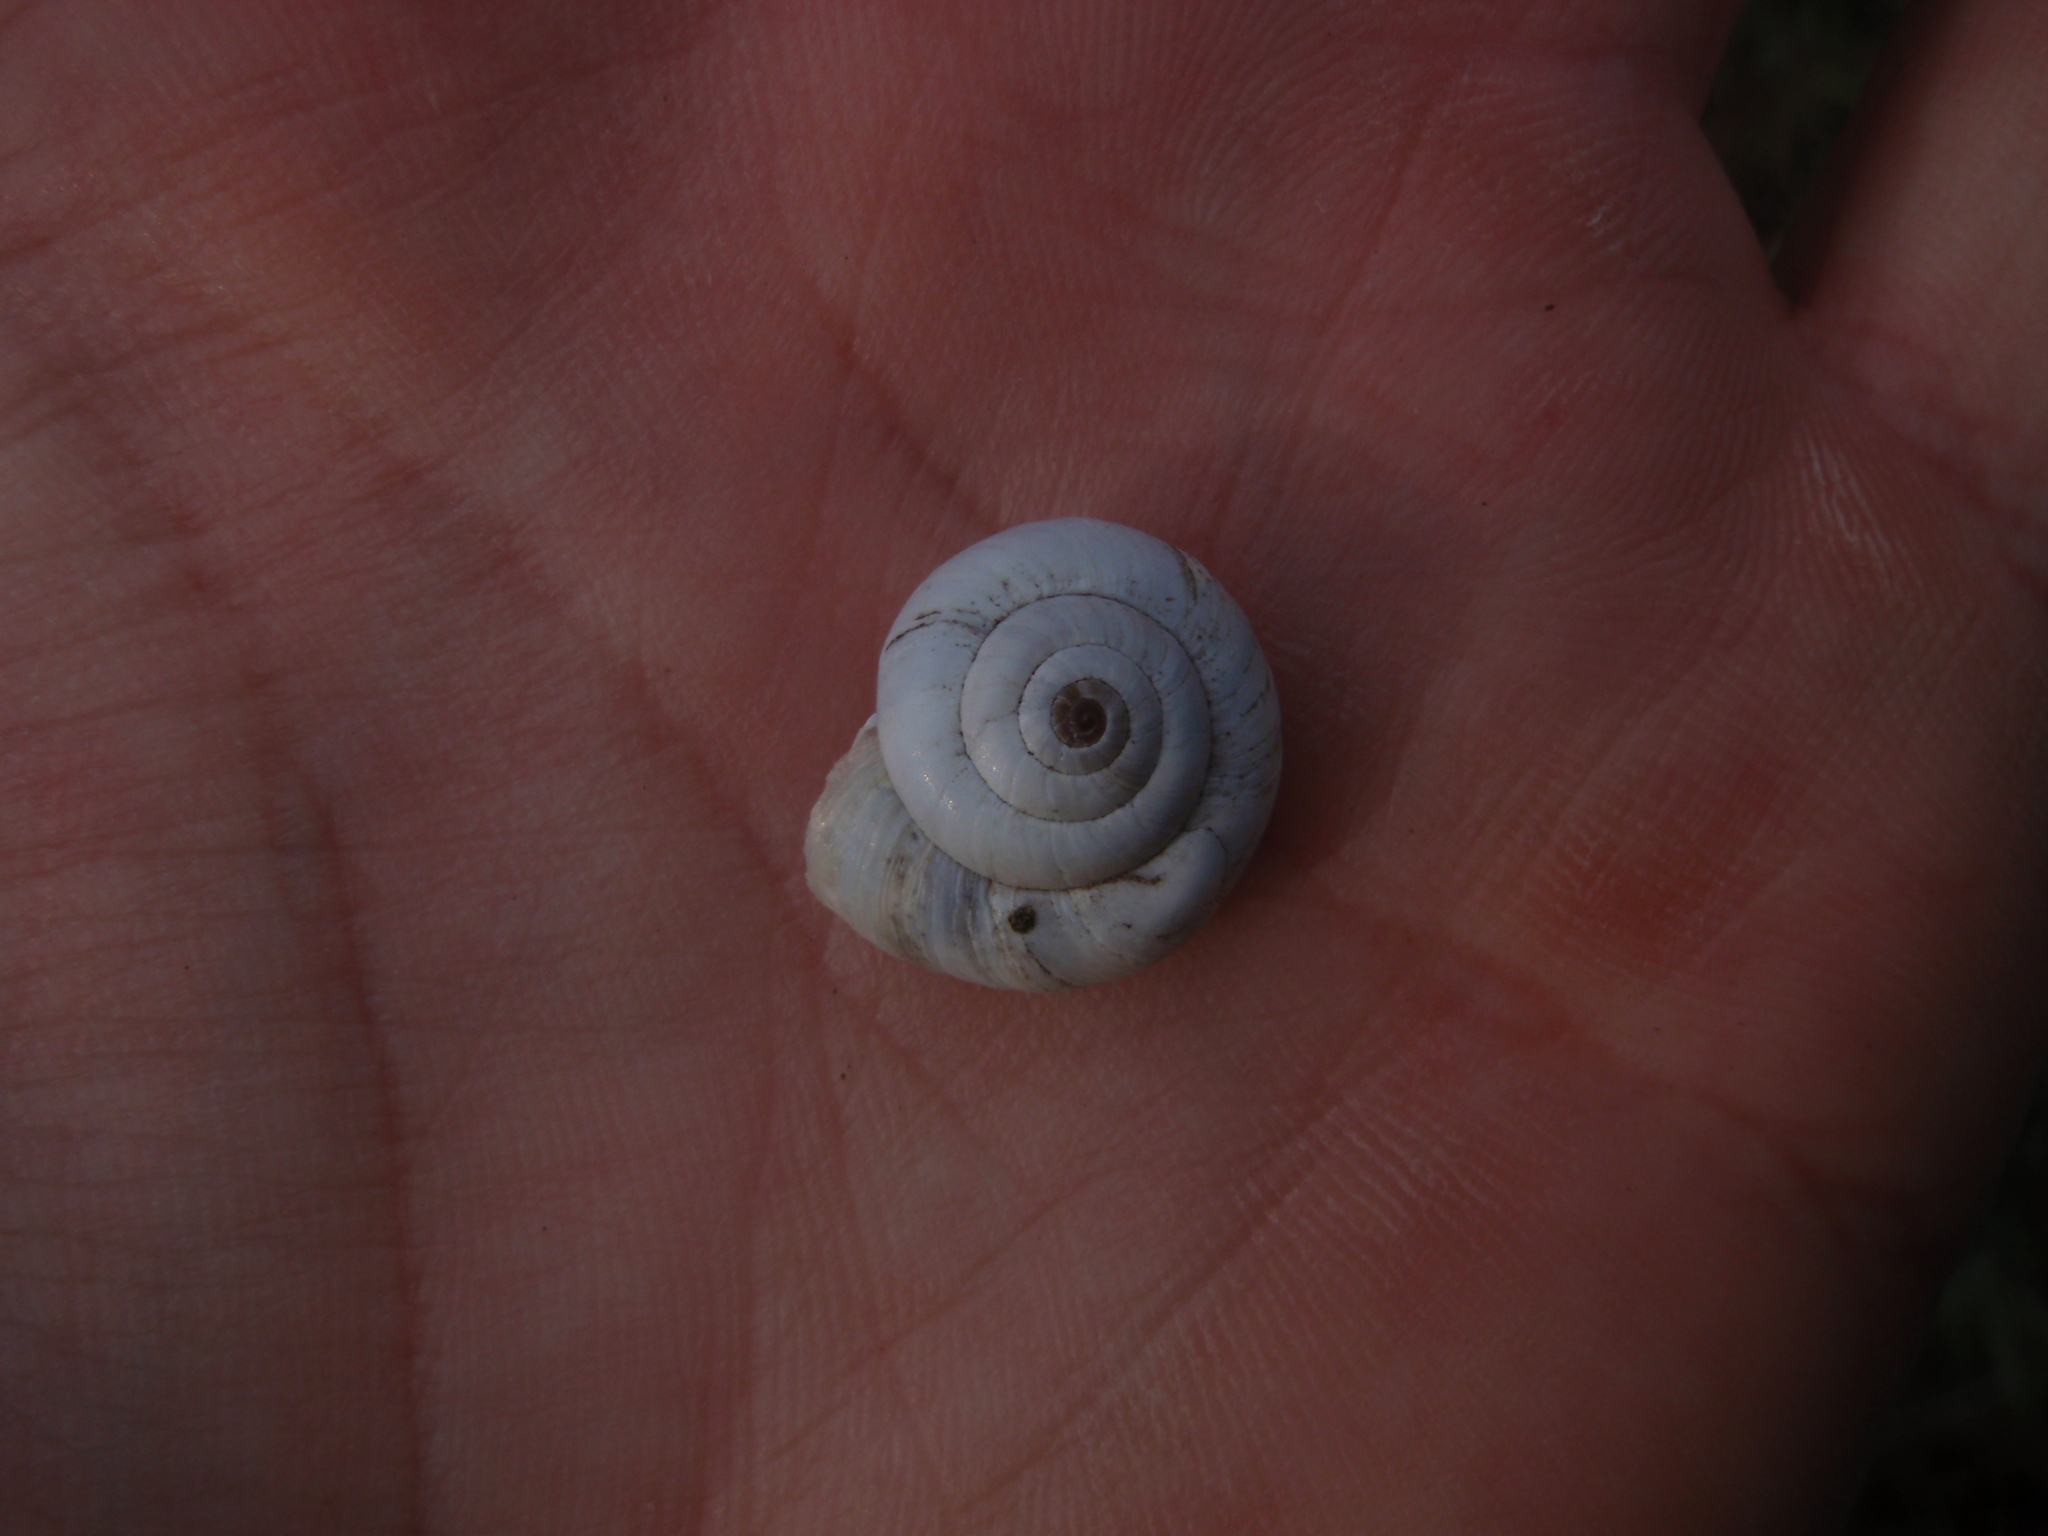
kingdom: Animalia
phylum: Mollusca
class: Gastropoda
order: Stylommatophora
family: Geomitridae
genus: Xeropicta
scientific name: Xeropicta derbentina
